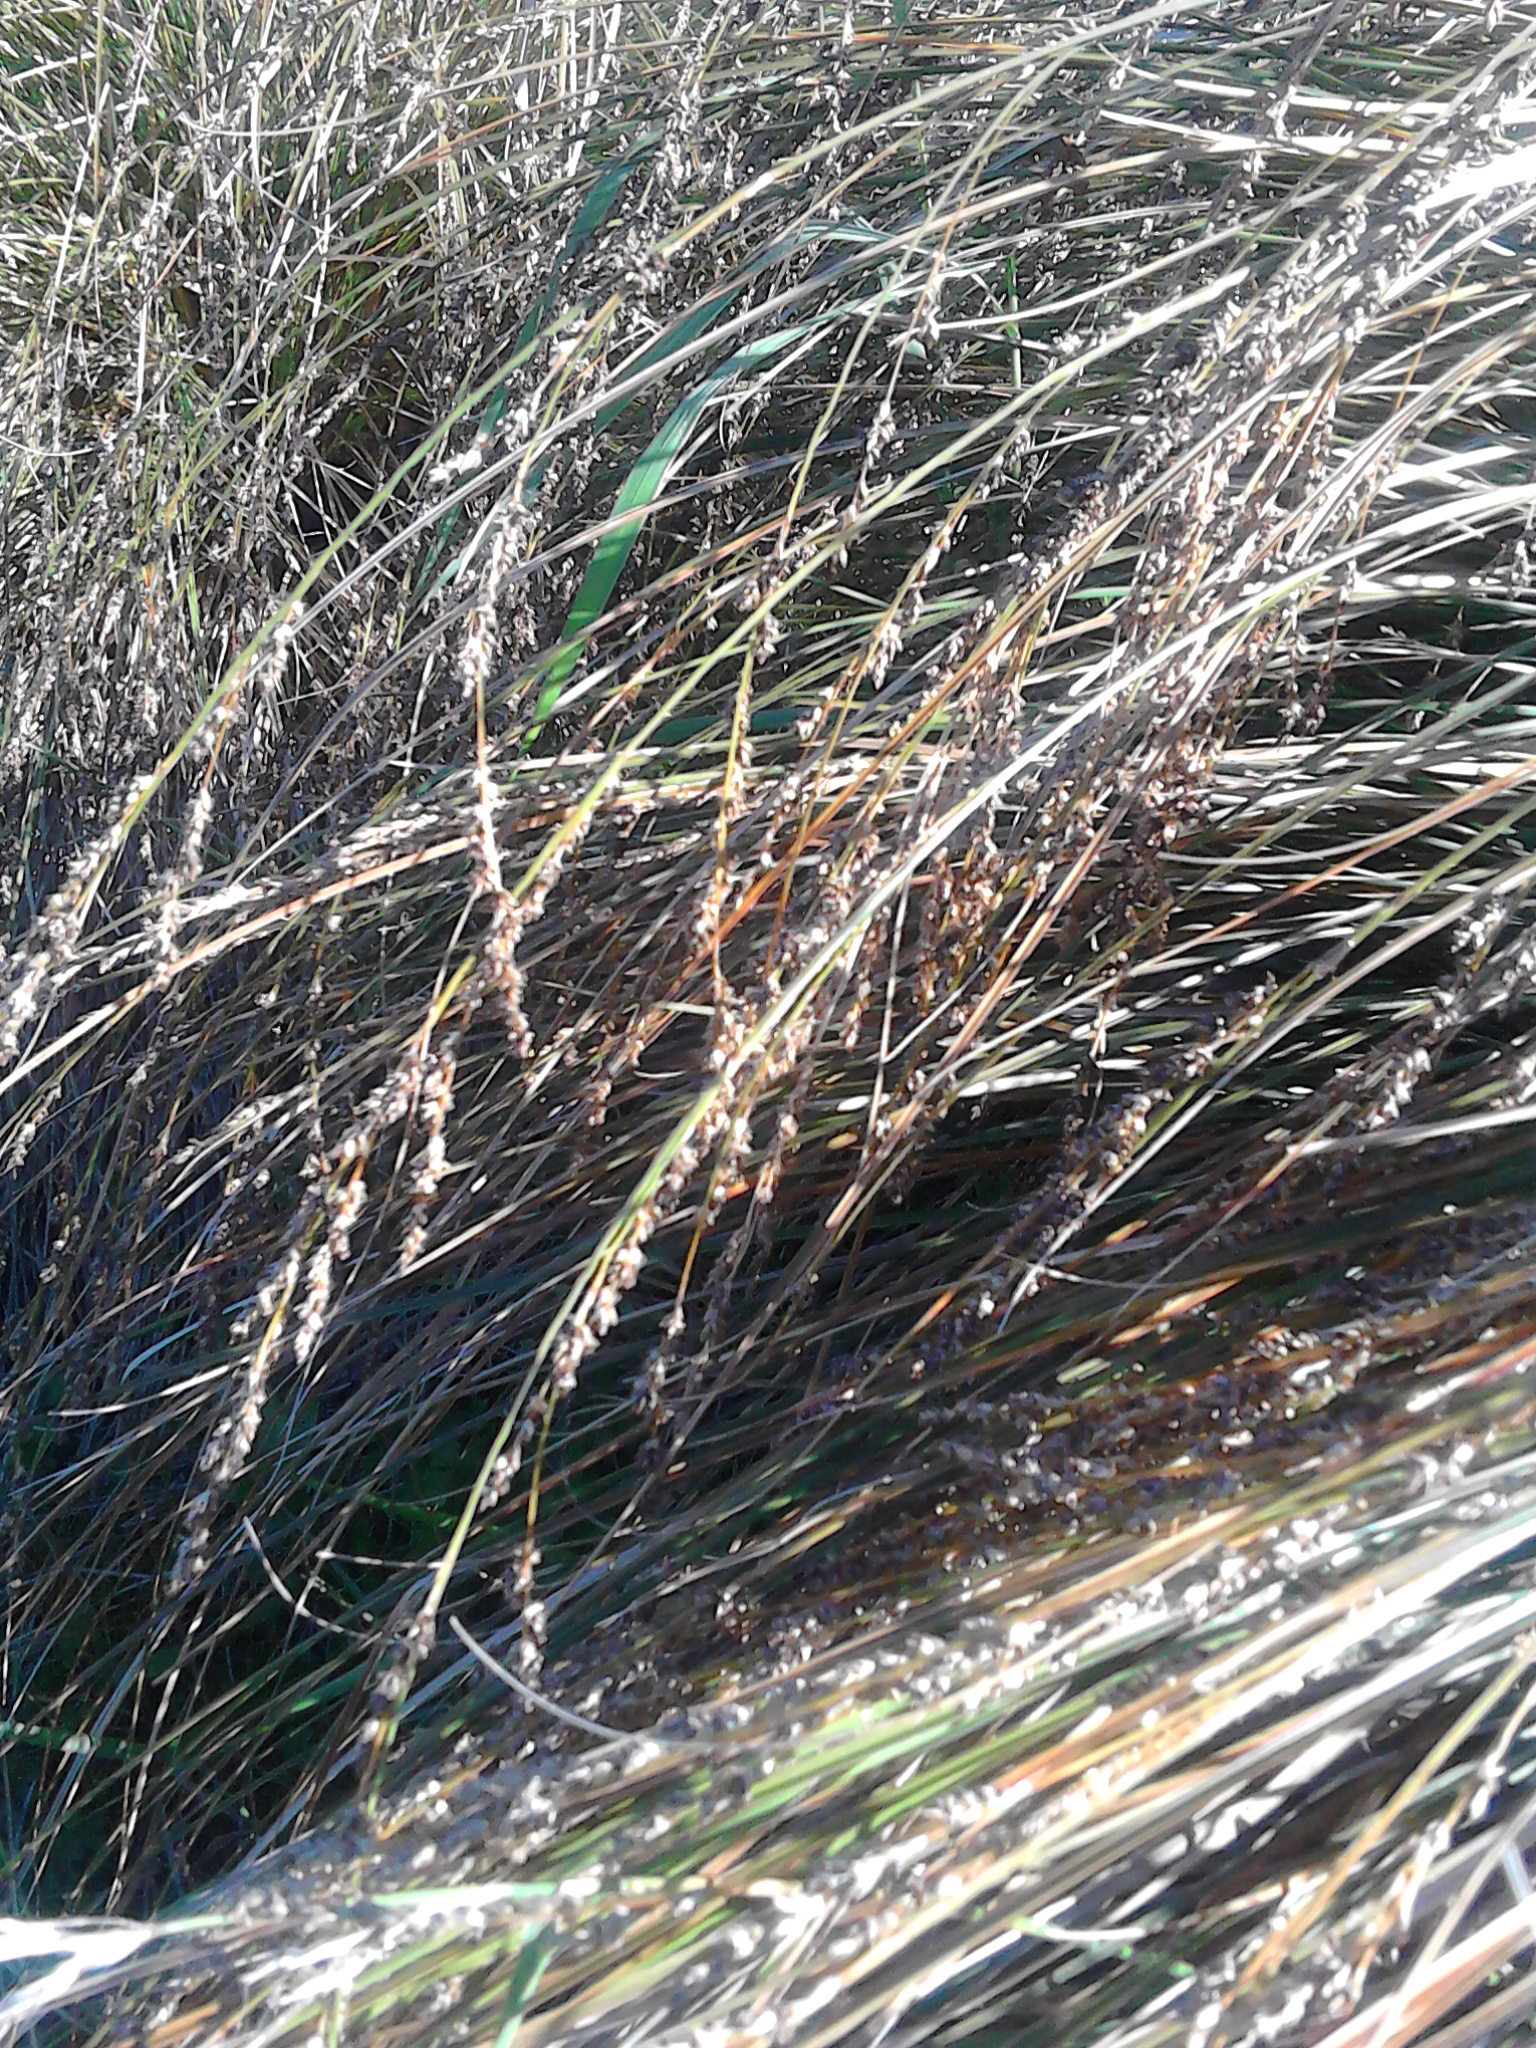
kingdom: Plantae
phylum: Tracheophyta
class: Liliopsida
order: Poales
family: Cyperaceae
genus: Carex
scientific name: Carex secta
